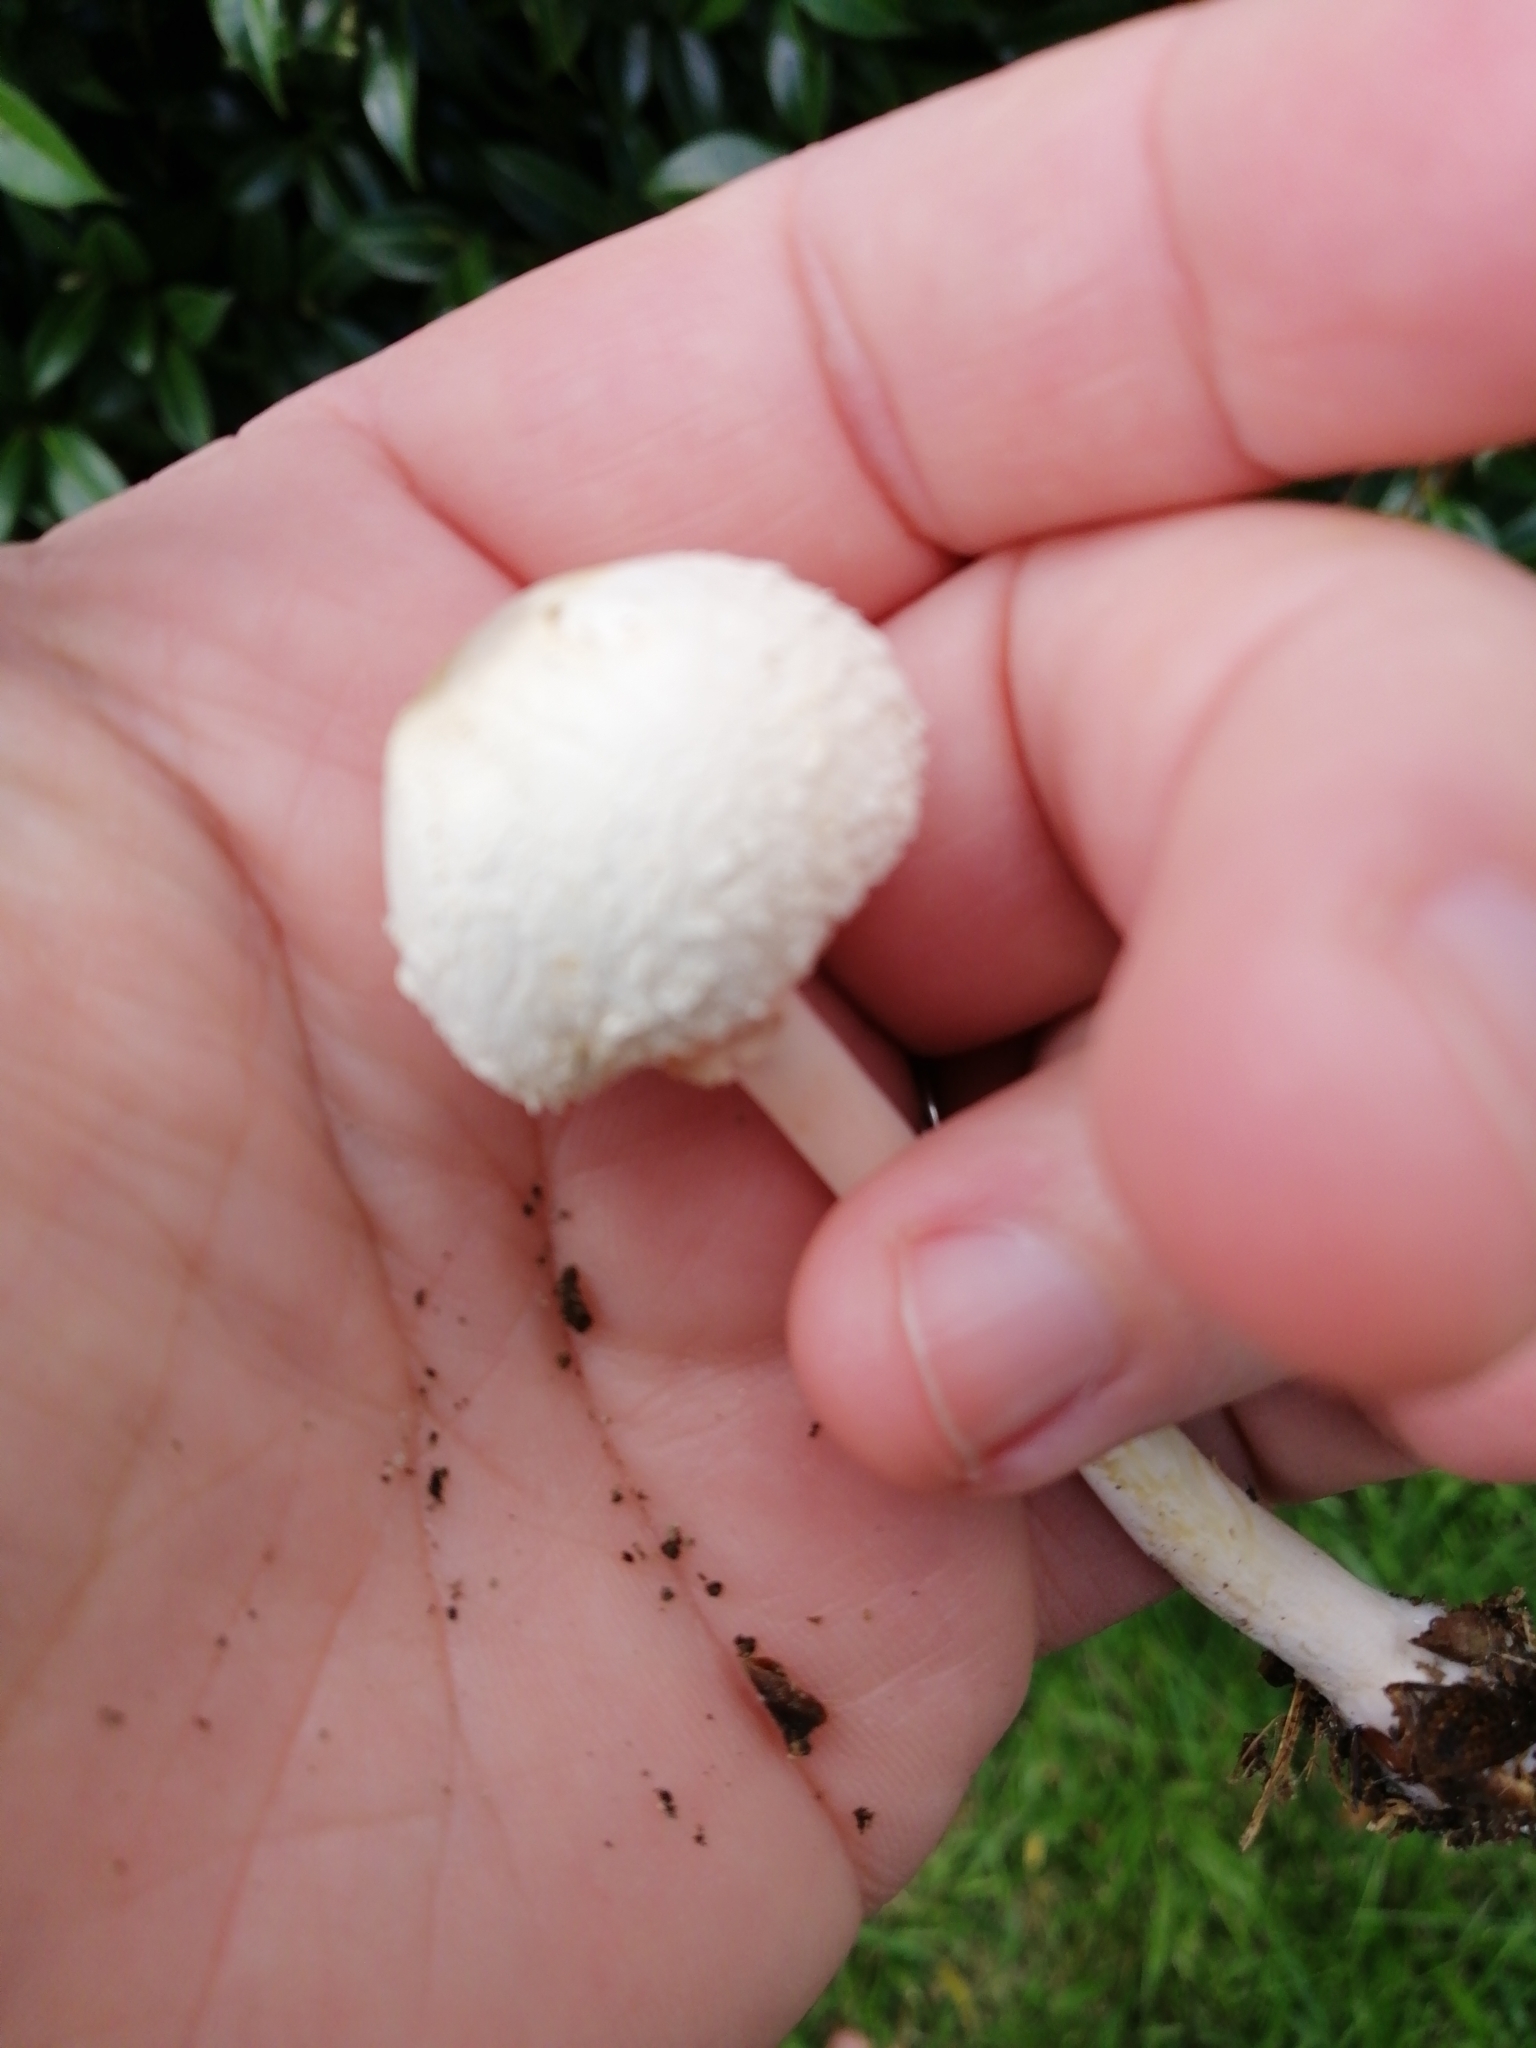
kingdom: Fungi
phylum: Basidiomycota
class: Agaricomycetes
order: Agaricales
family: Agaricaceae
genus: Leucocoprinus
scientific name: Leucocoprinus cepistipes
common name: Onion-stalk parasol
